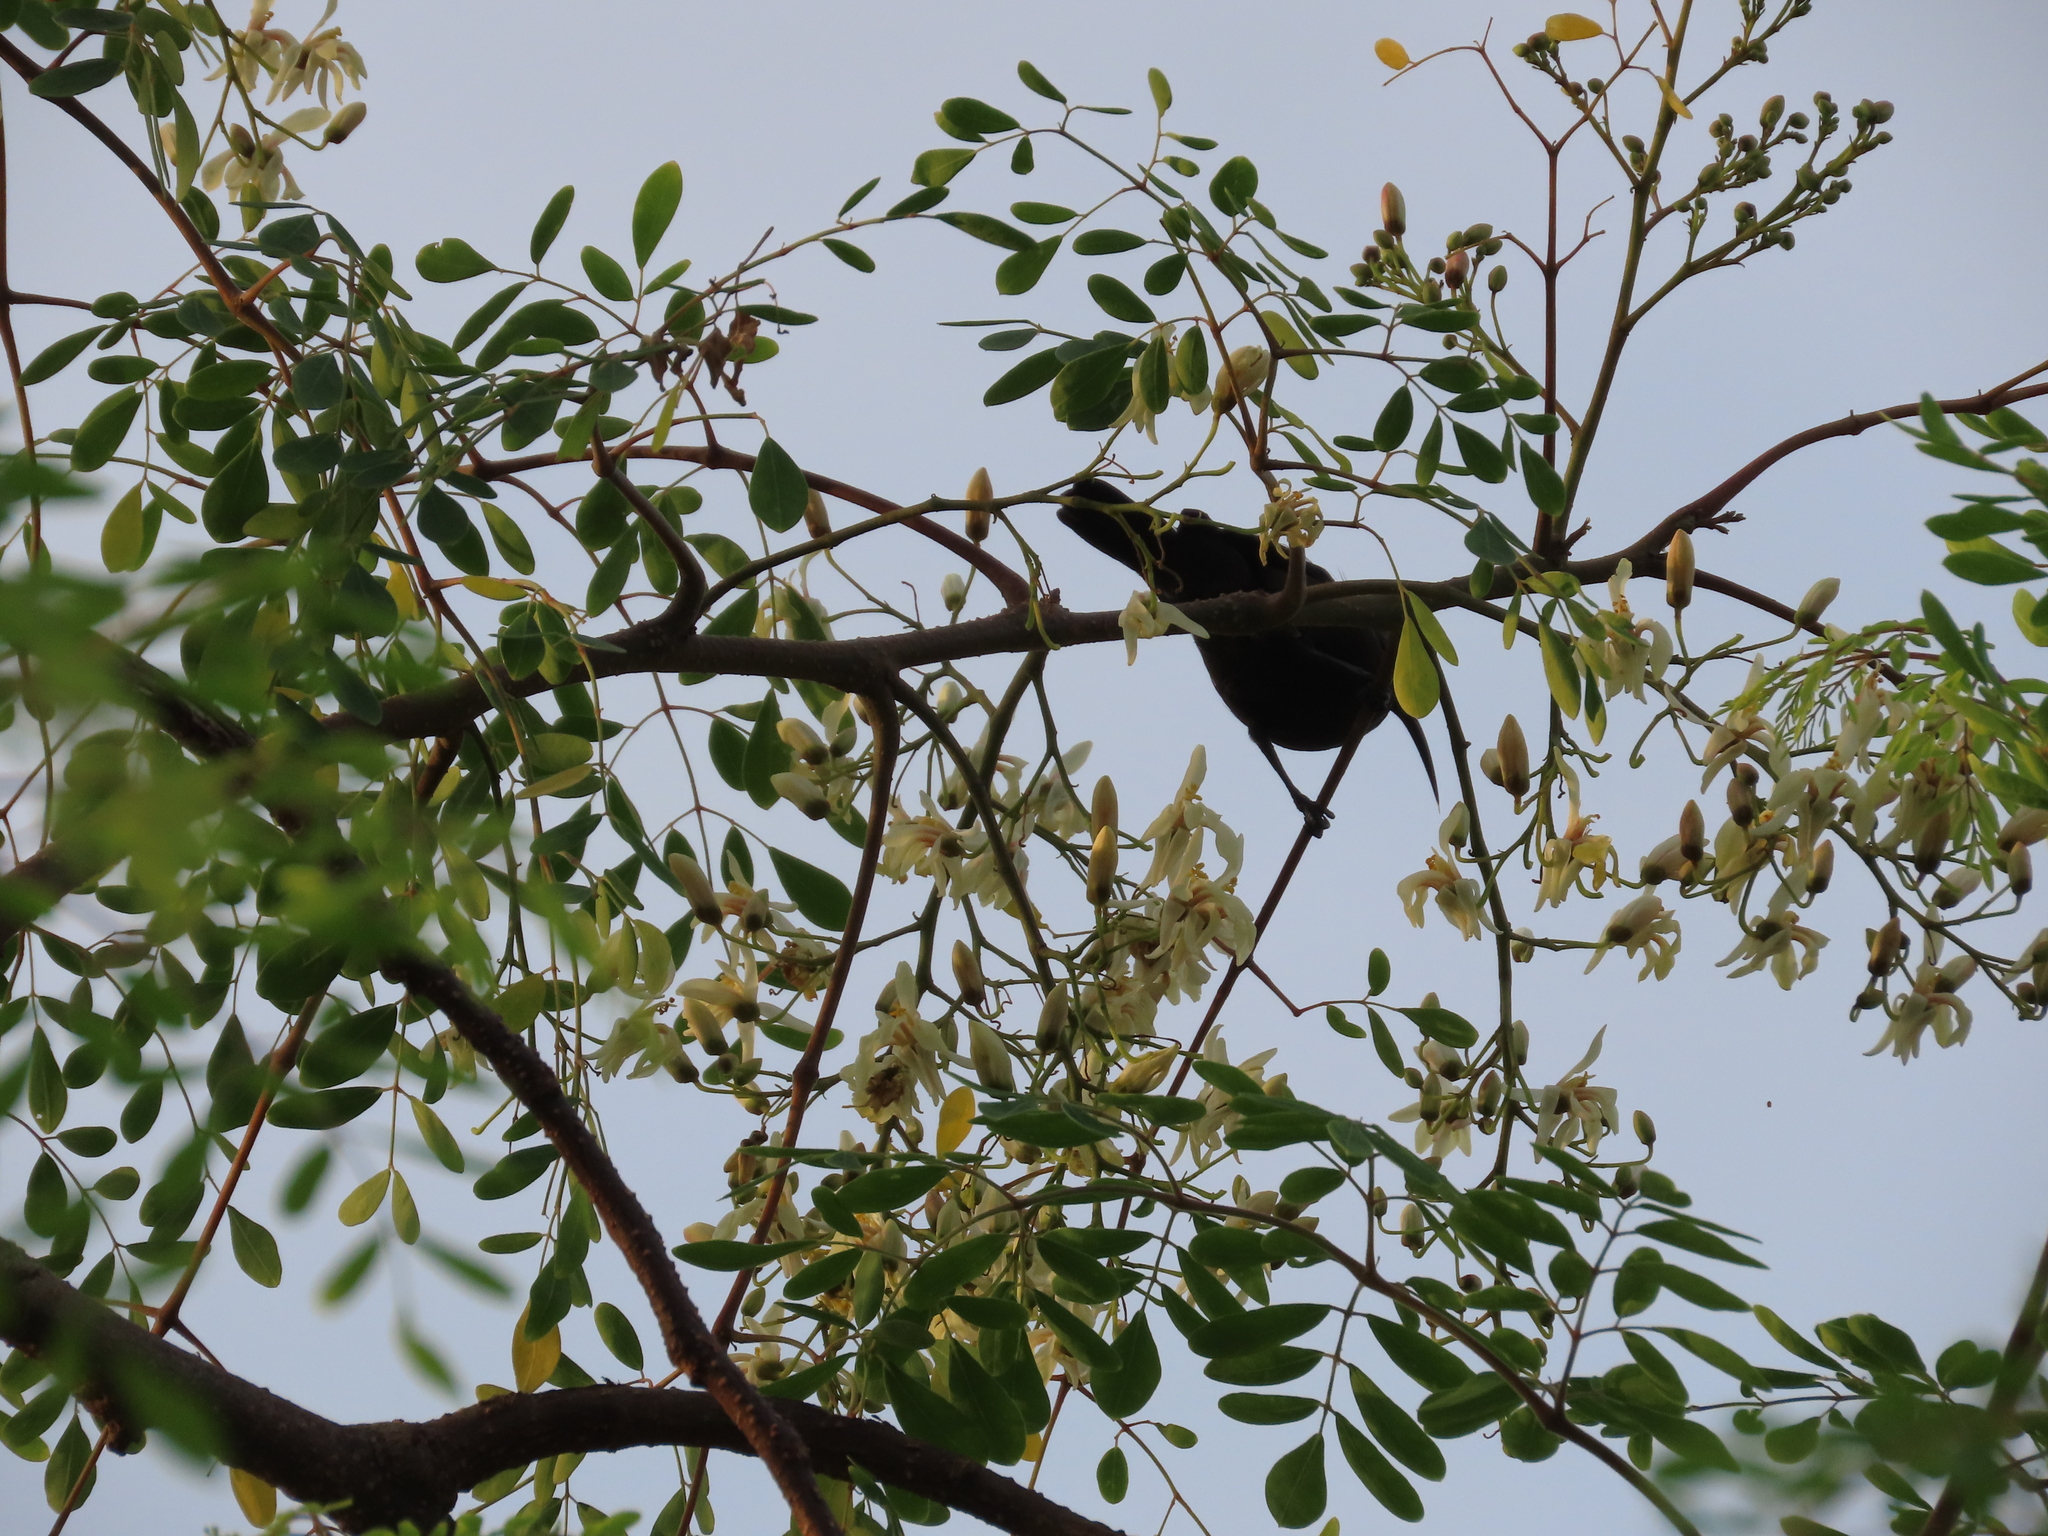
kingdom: Animalia
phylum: Chordata
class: Aves
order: Passeriformes
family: Nectariniidae
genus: Cinnyris
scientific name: Cinnyris lotenius
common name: Loten's sunbird
